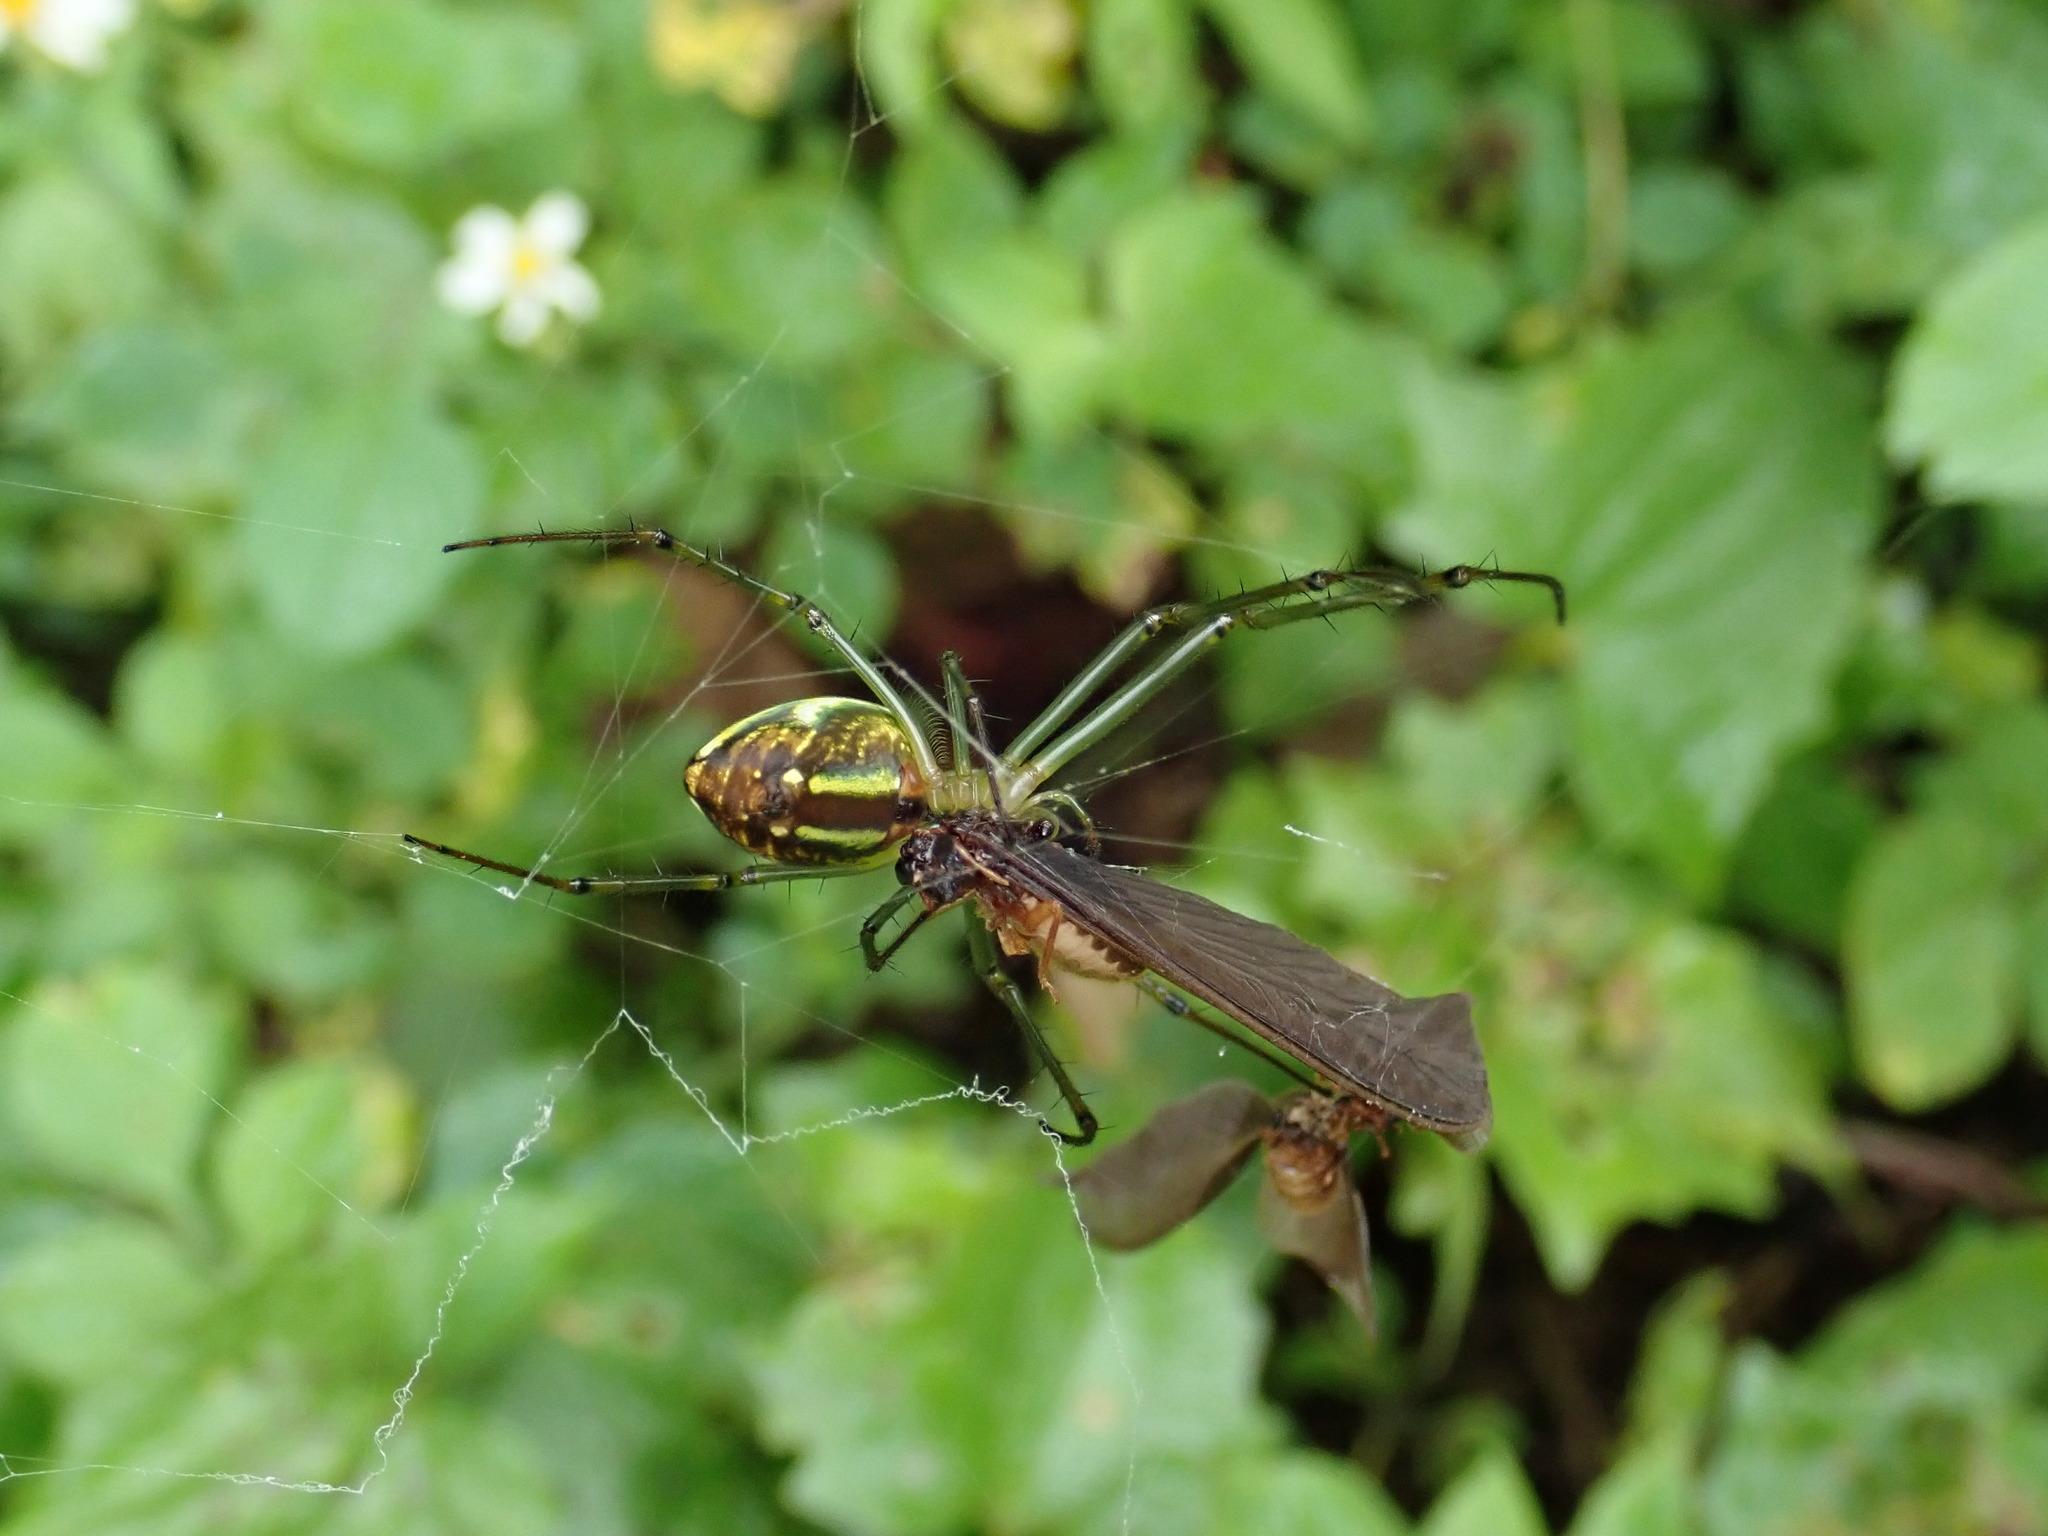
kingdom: Animalia
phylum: Arthropoda
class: Arachnida
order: Araneae
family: Tetragnathidae
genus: Leucauge
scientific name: Leucauge celebesiana
